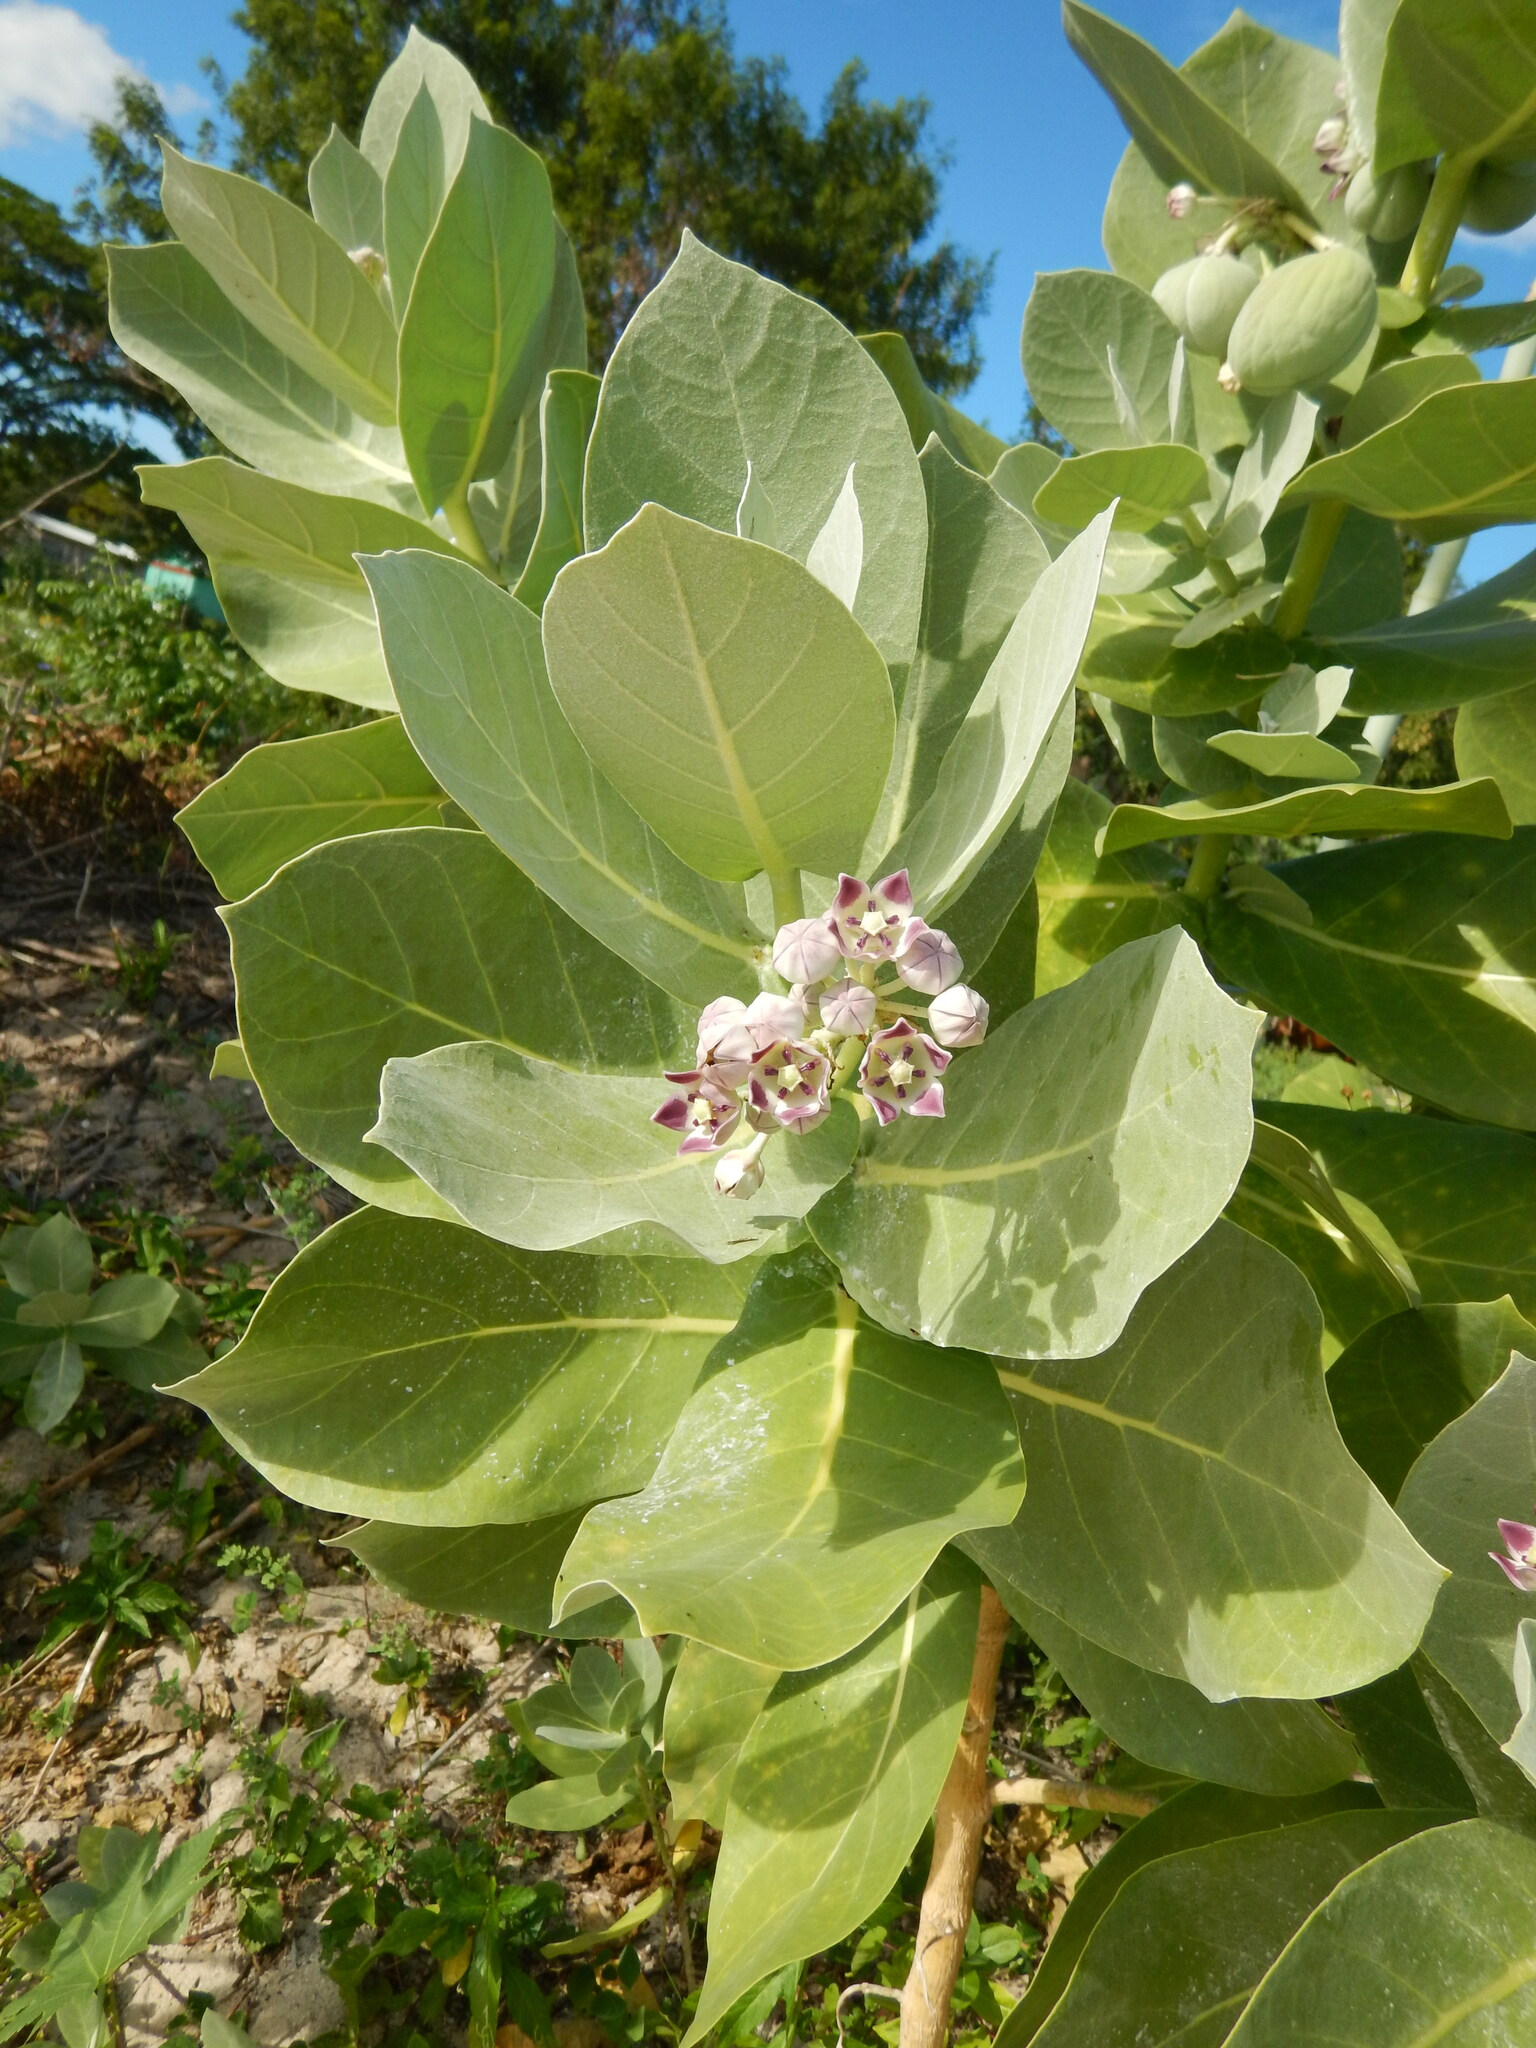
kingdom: Plantae
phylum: Tracheophyta
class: Magnoliopsida
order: Gentianales
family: Apocynaceae
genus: Calotropis
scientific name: Calotropis procera
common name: Roostertree
